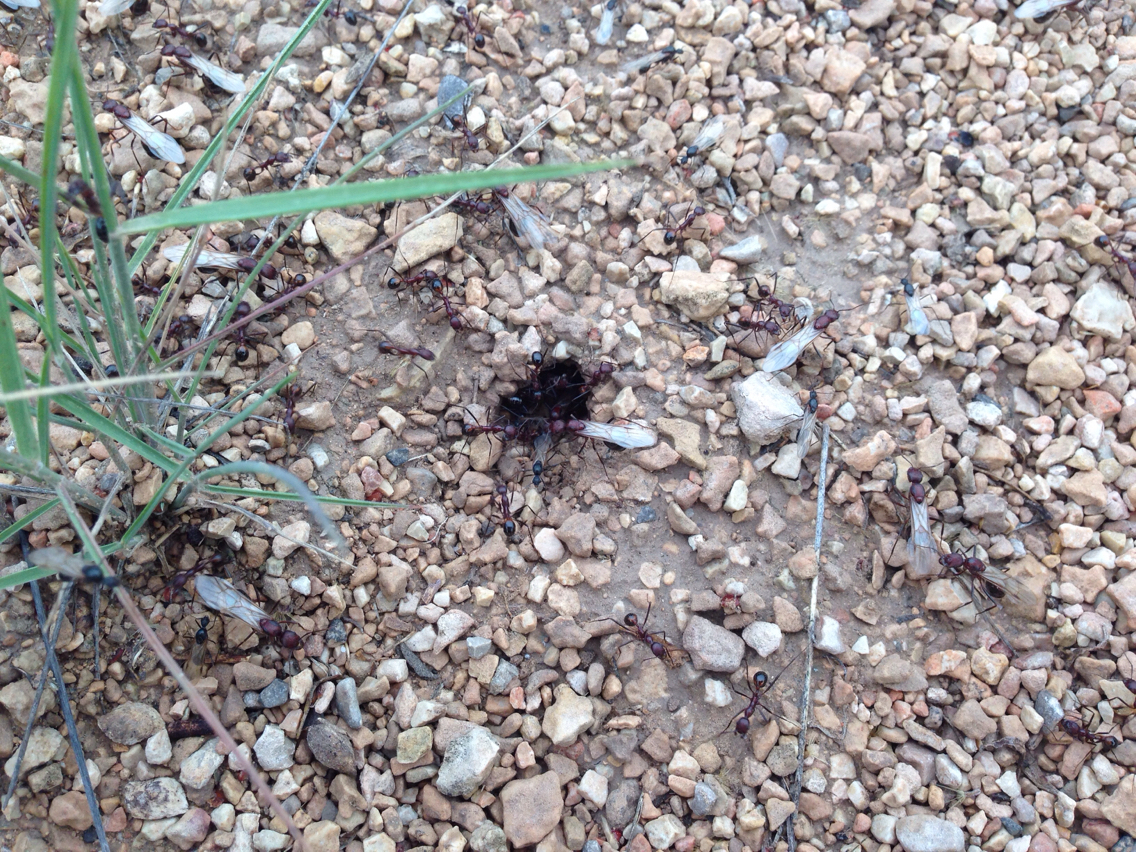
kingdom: Animalia
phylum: Arthropoda
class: Insecta
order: Hymenoptera
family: Formicidae
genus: Novomessor
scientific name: Novomessor cockerelli
